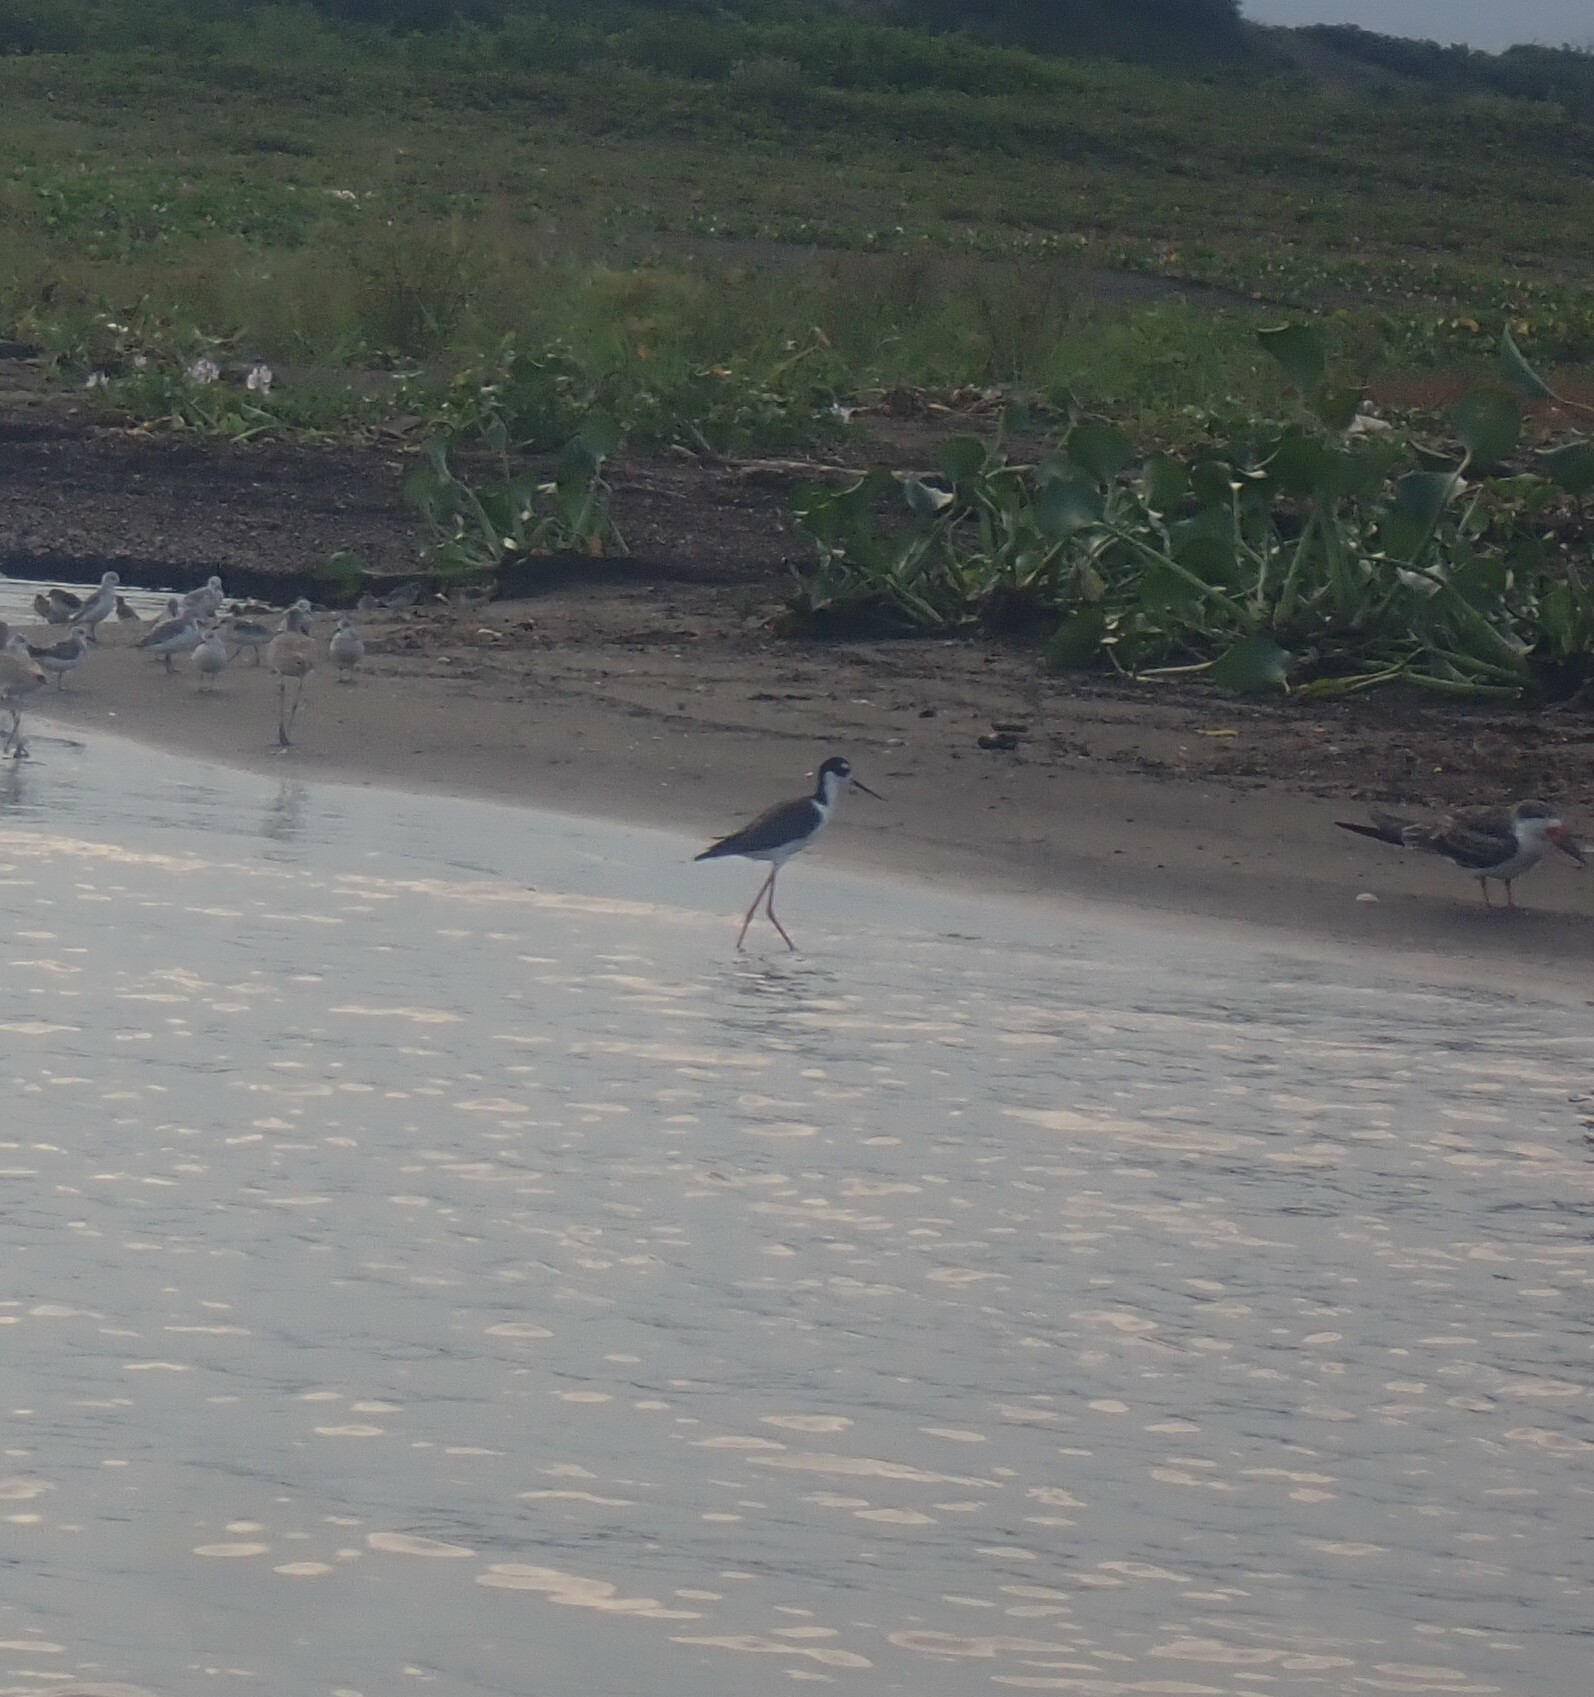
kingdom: Animalia
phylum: Chordata
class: Aves
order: Charadriiformes
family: Recurvirostridae
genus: Himantopus
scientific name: Himantopus mexicanus
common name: Black-necked stilt
